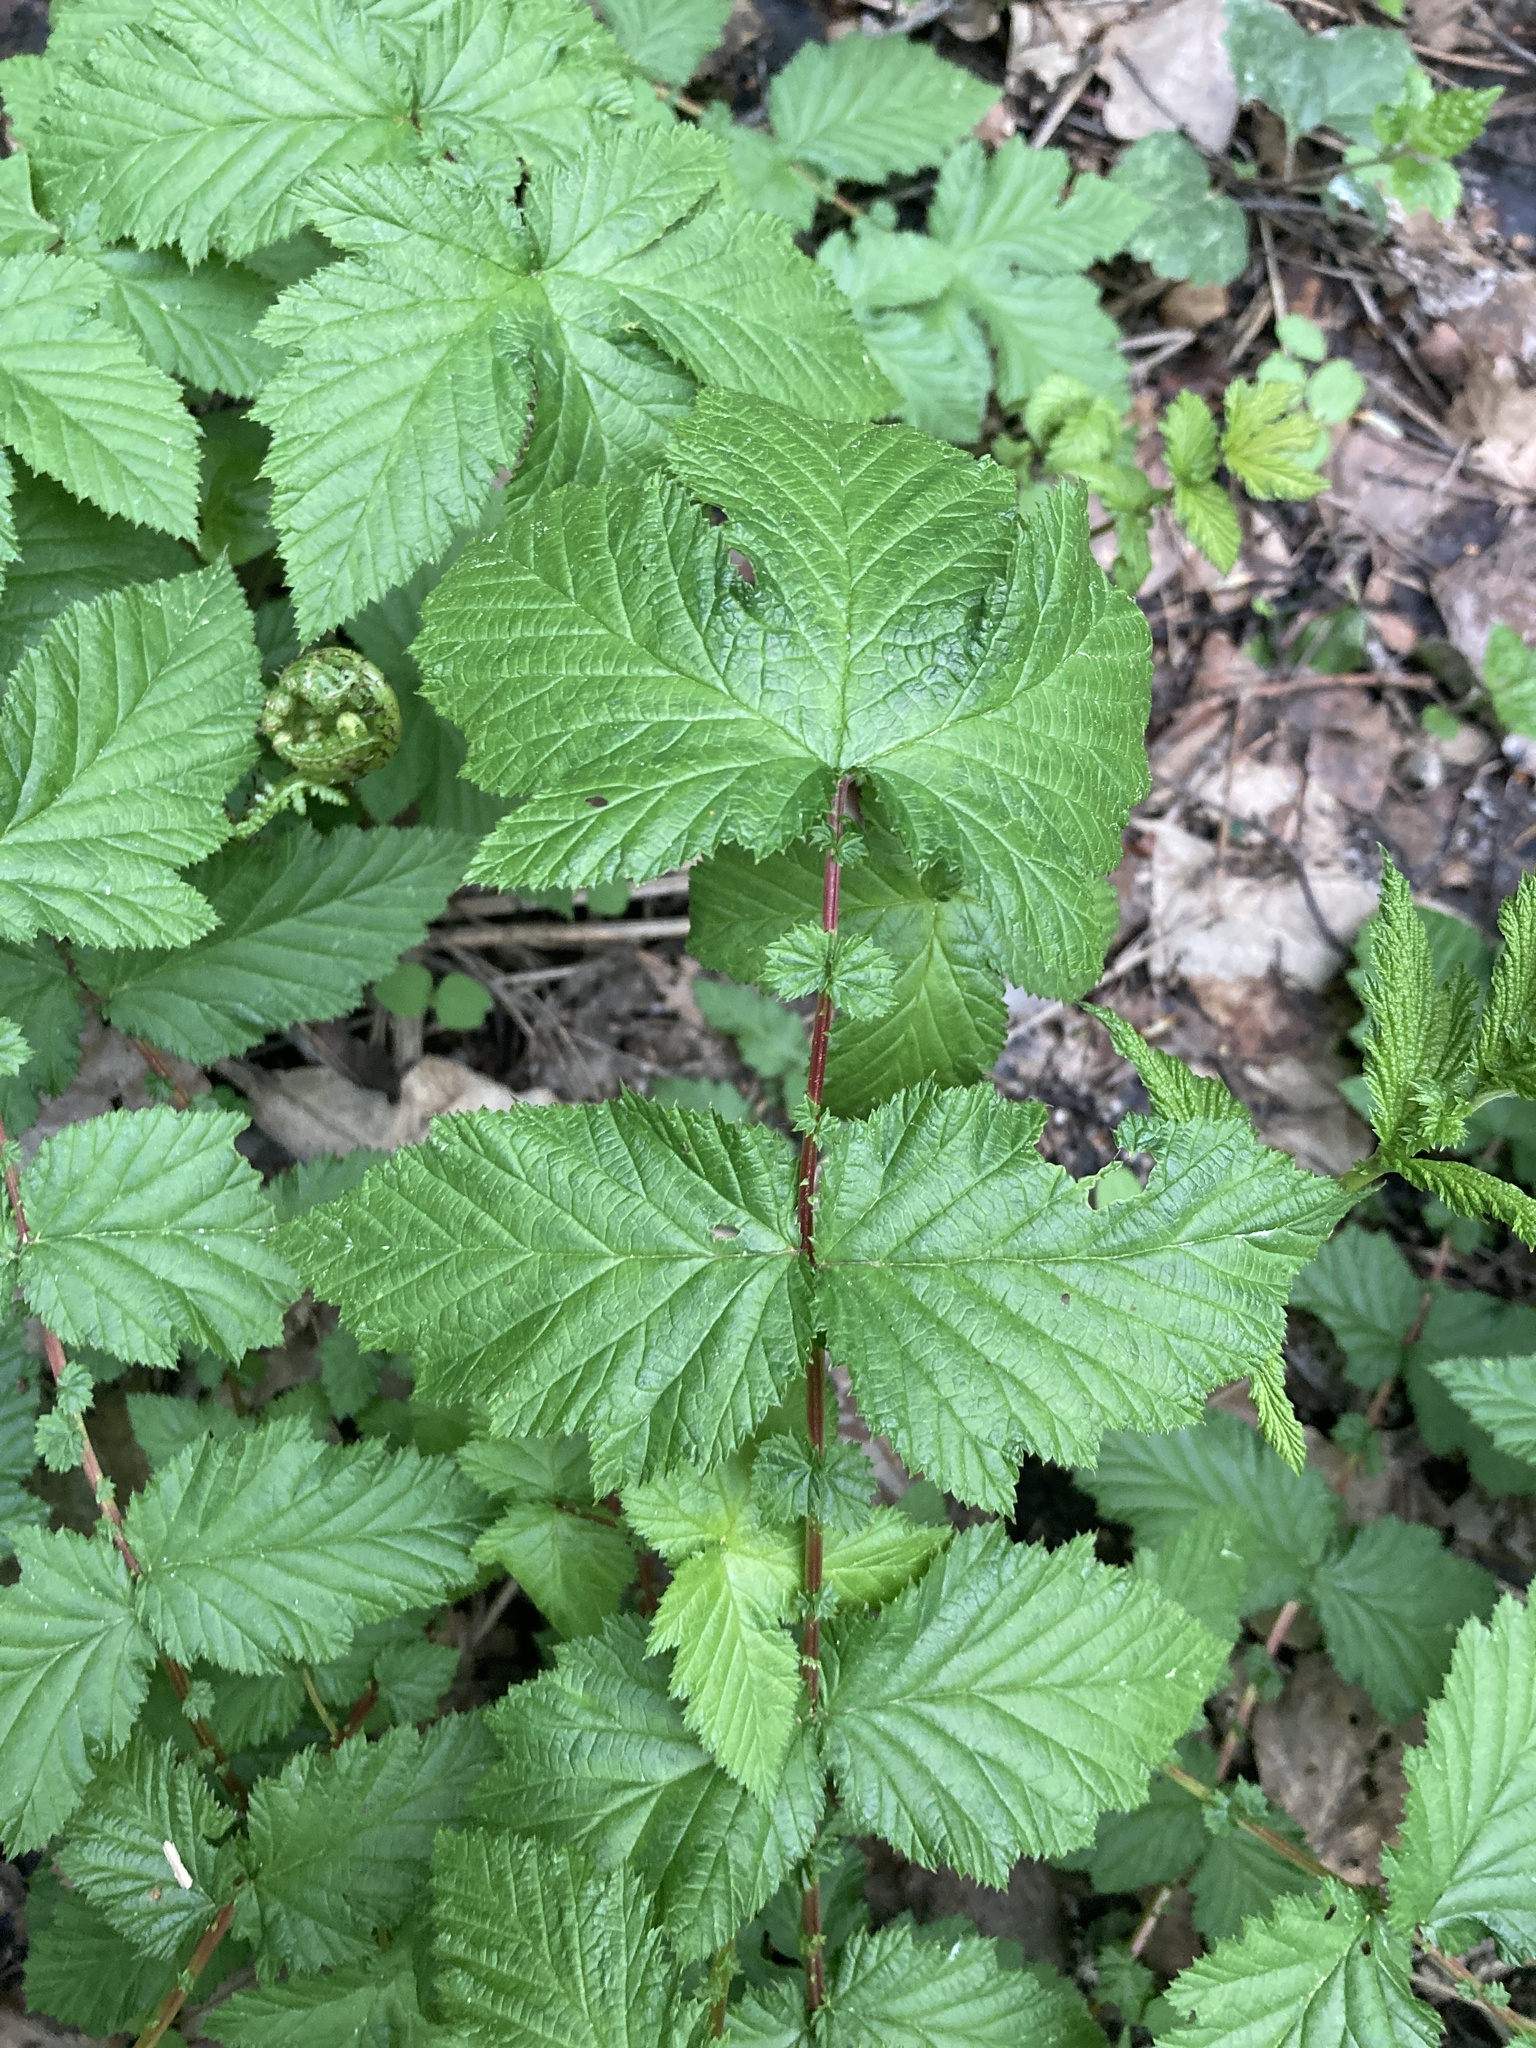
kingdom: Plantae
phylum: Tracheophyta
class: Magnoliopsida
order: Rosales
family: Rosaceae
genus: Filipendula
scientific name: Filipendula ulmaria
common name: Meadowsweet
